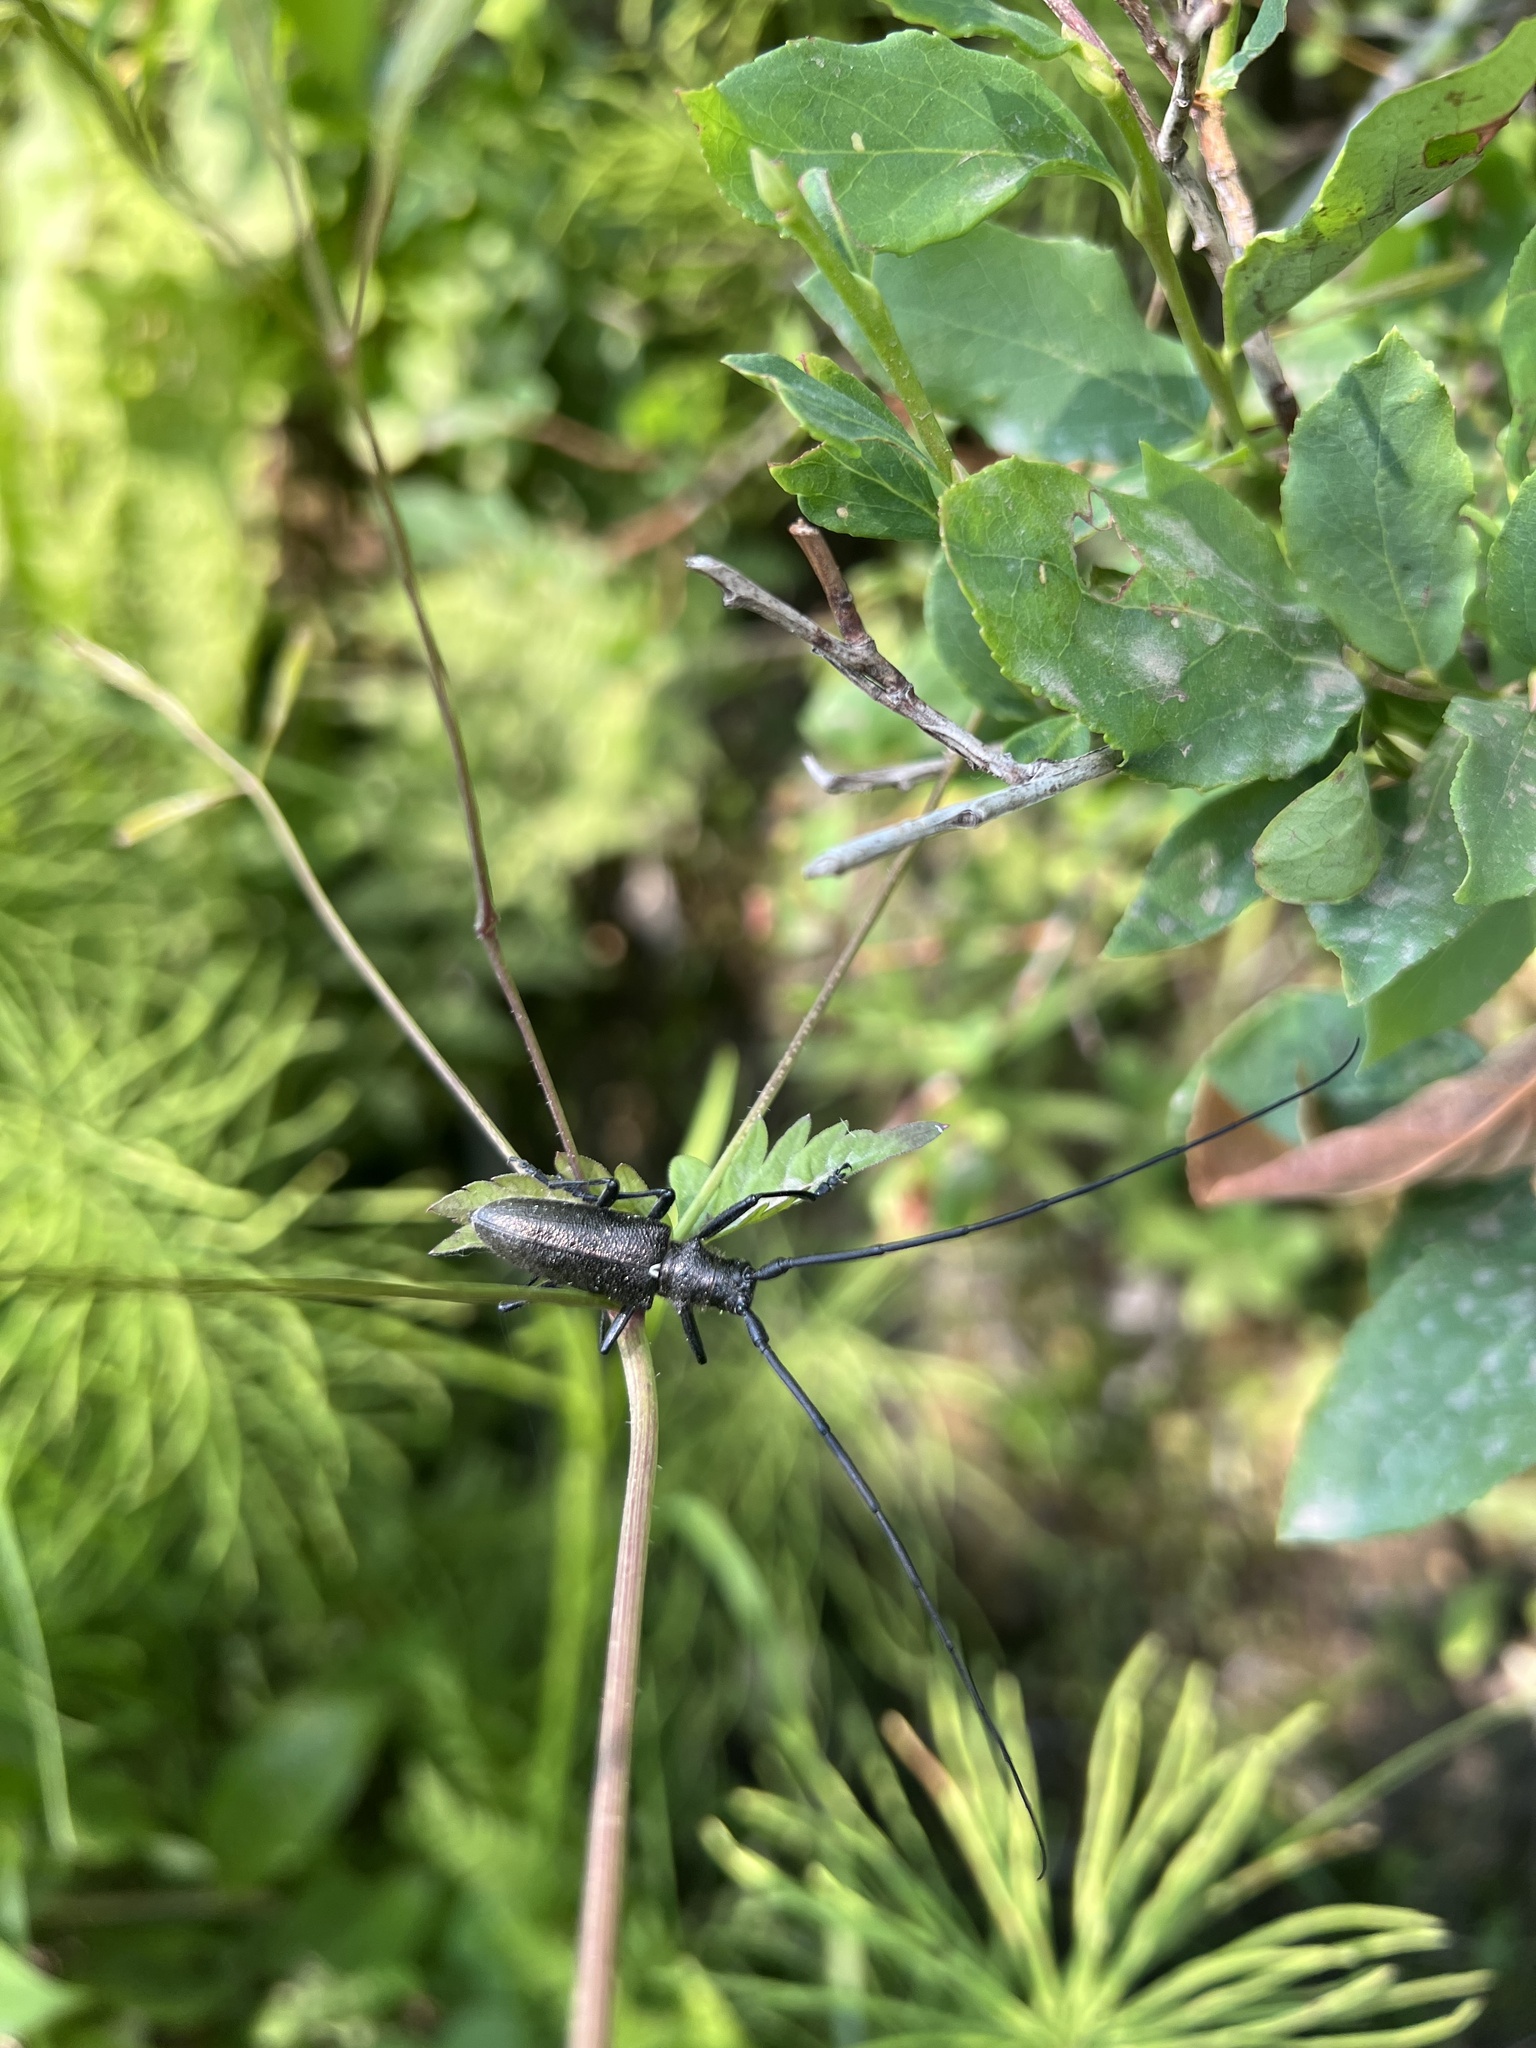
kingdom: Animalia
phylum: Arthropoda
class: Insecta
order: Coleoptera
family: Cerambycidae
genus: Monochamus
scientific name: Monochamus scutellatus
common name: White-spotted sawyer beetle
